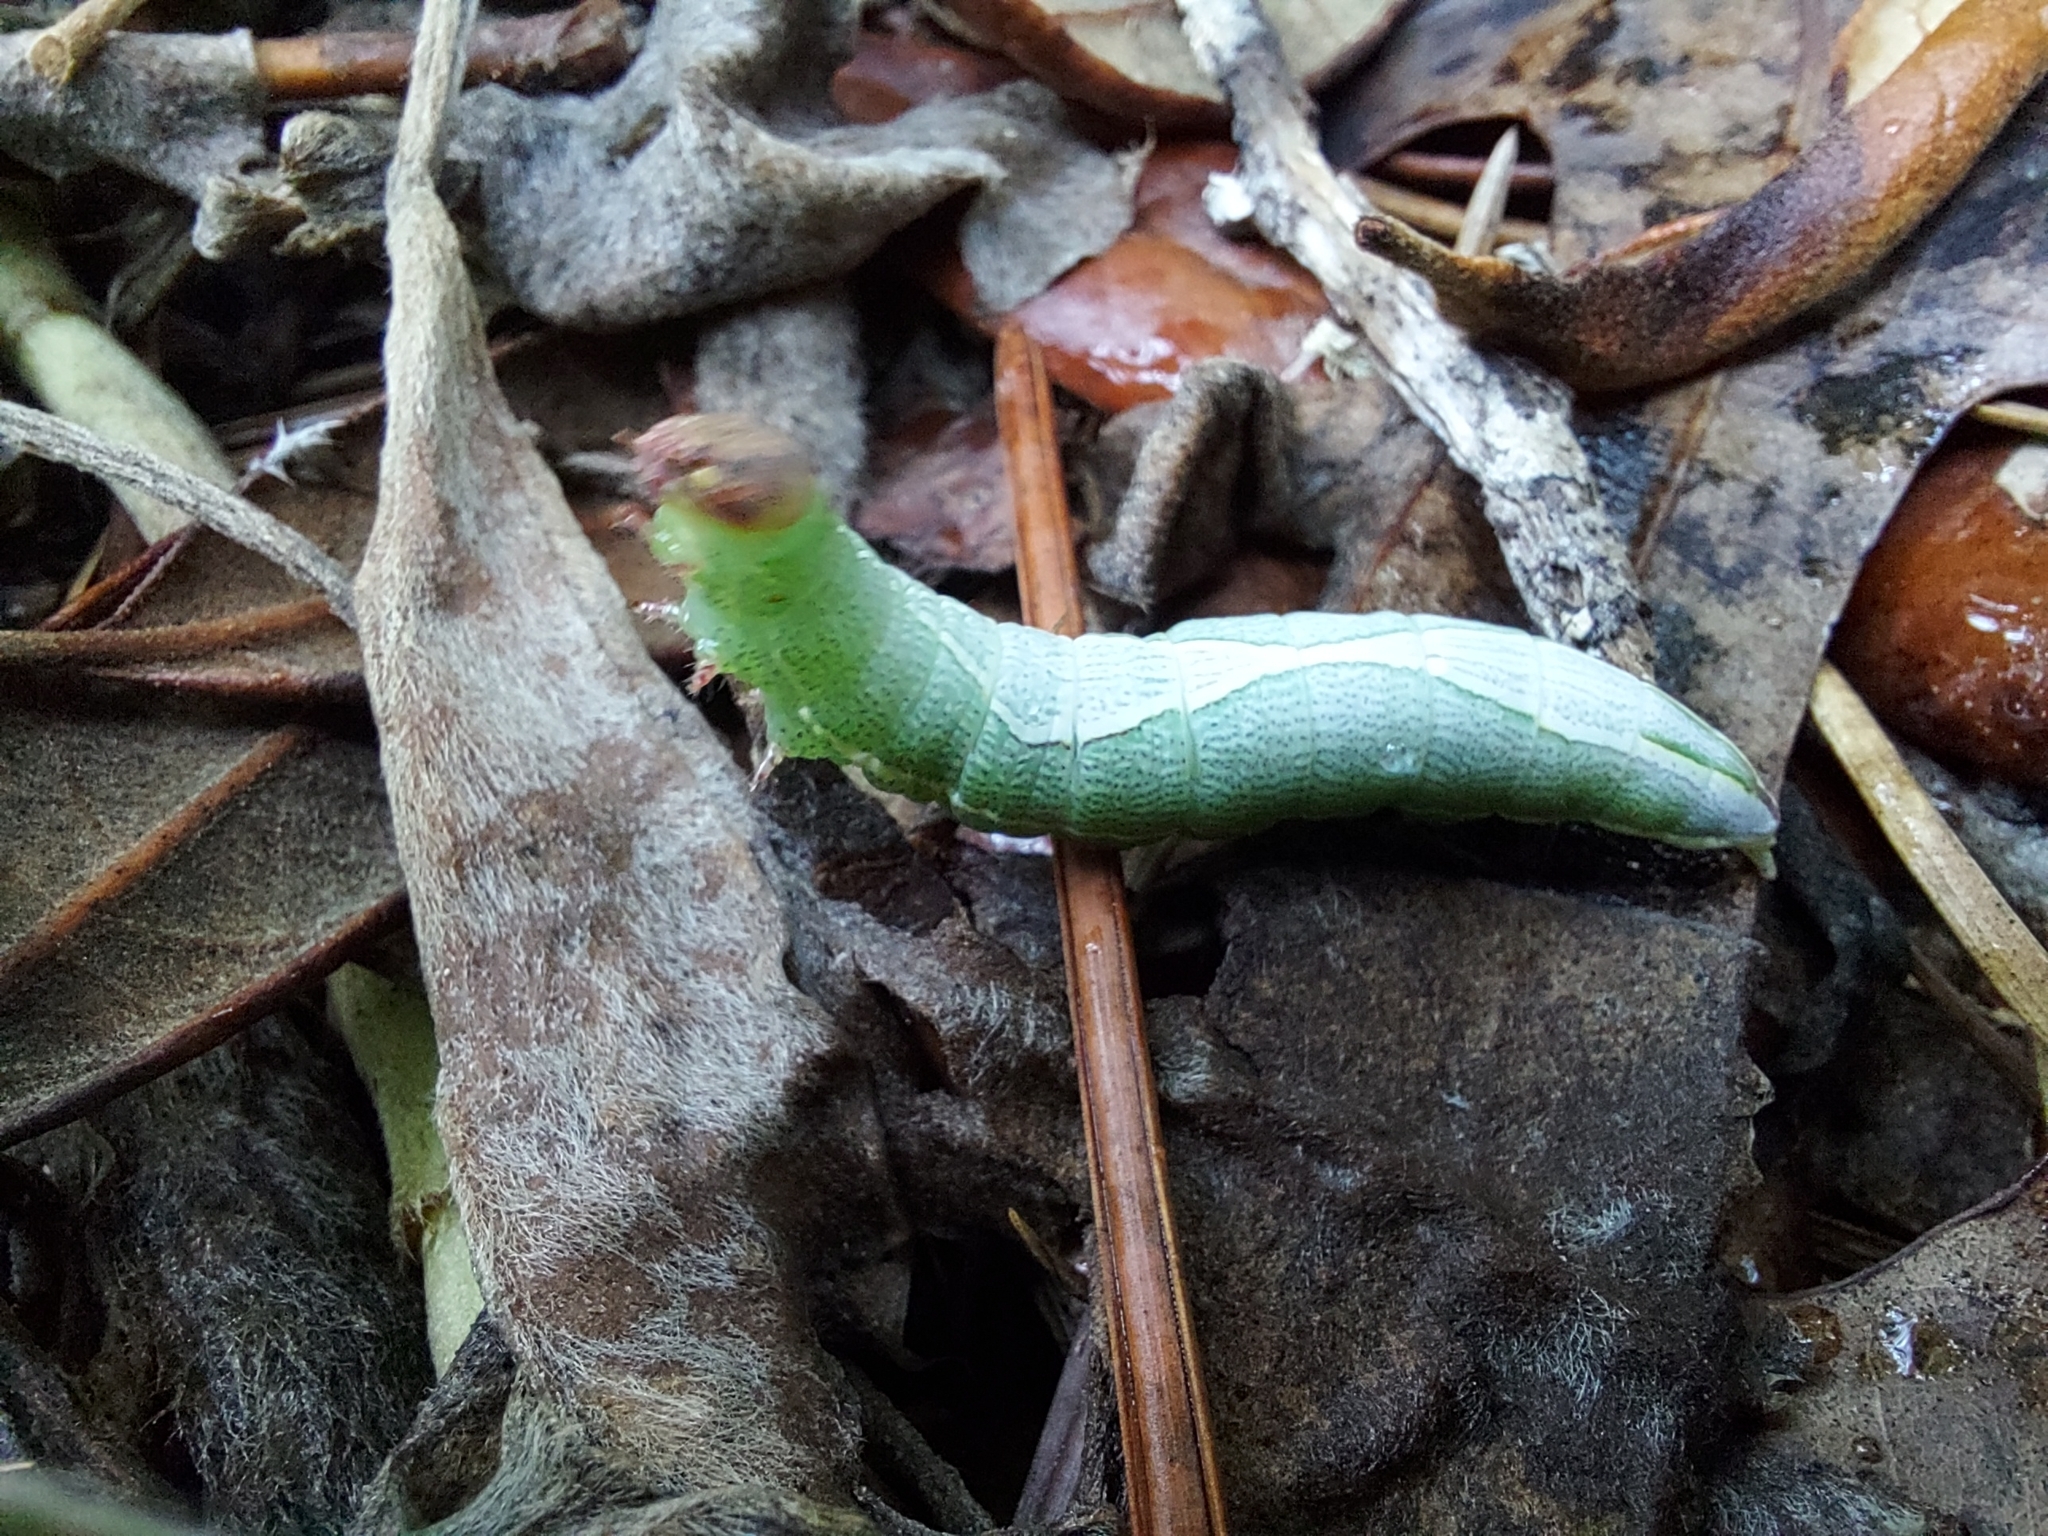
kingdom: Animalia
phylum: Arthropoda
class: Insecta
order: Lepidoptera
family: Notodontidae
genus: Heterocampa
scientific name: Heterocampa obliqua
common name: Oblique heterocampa
